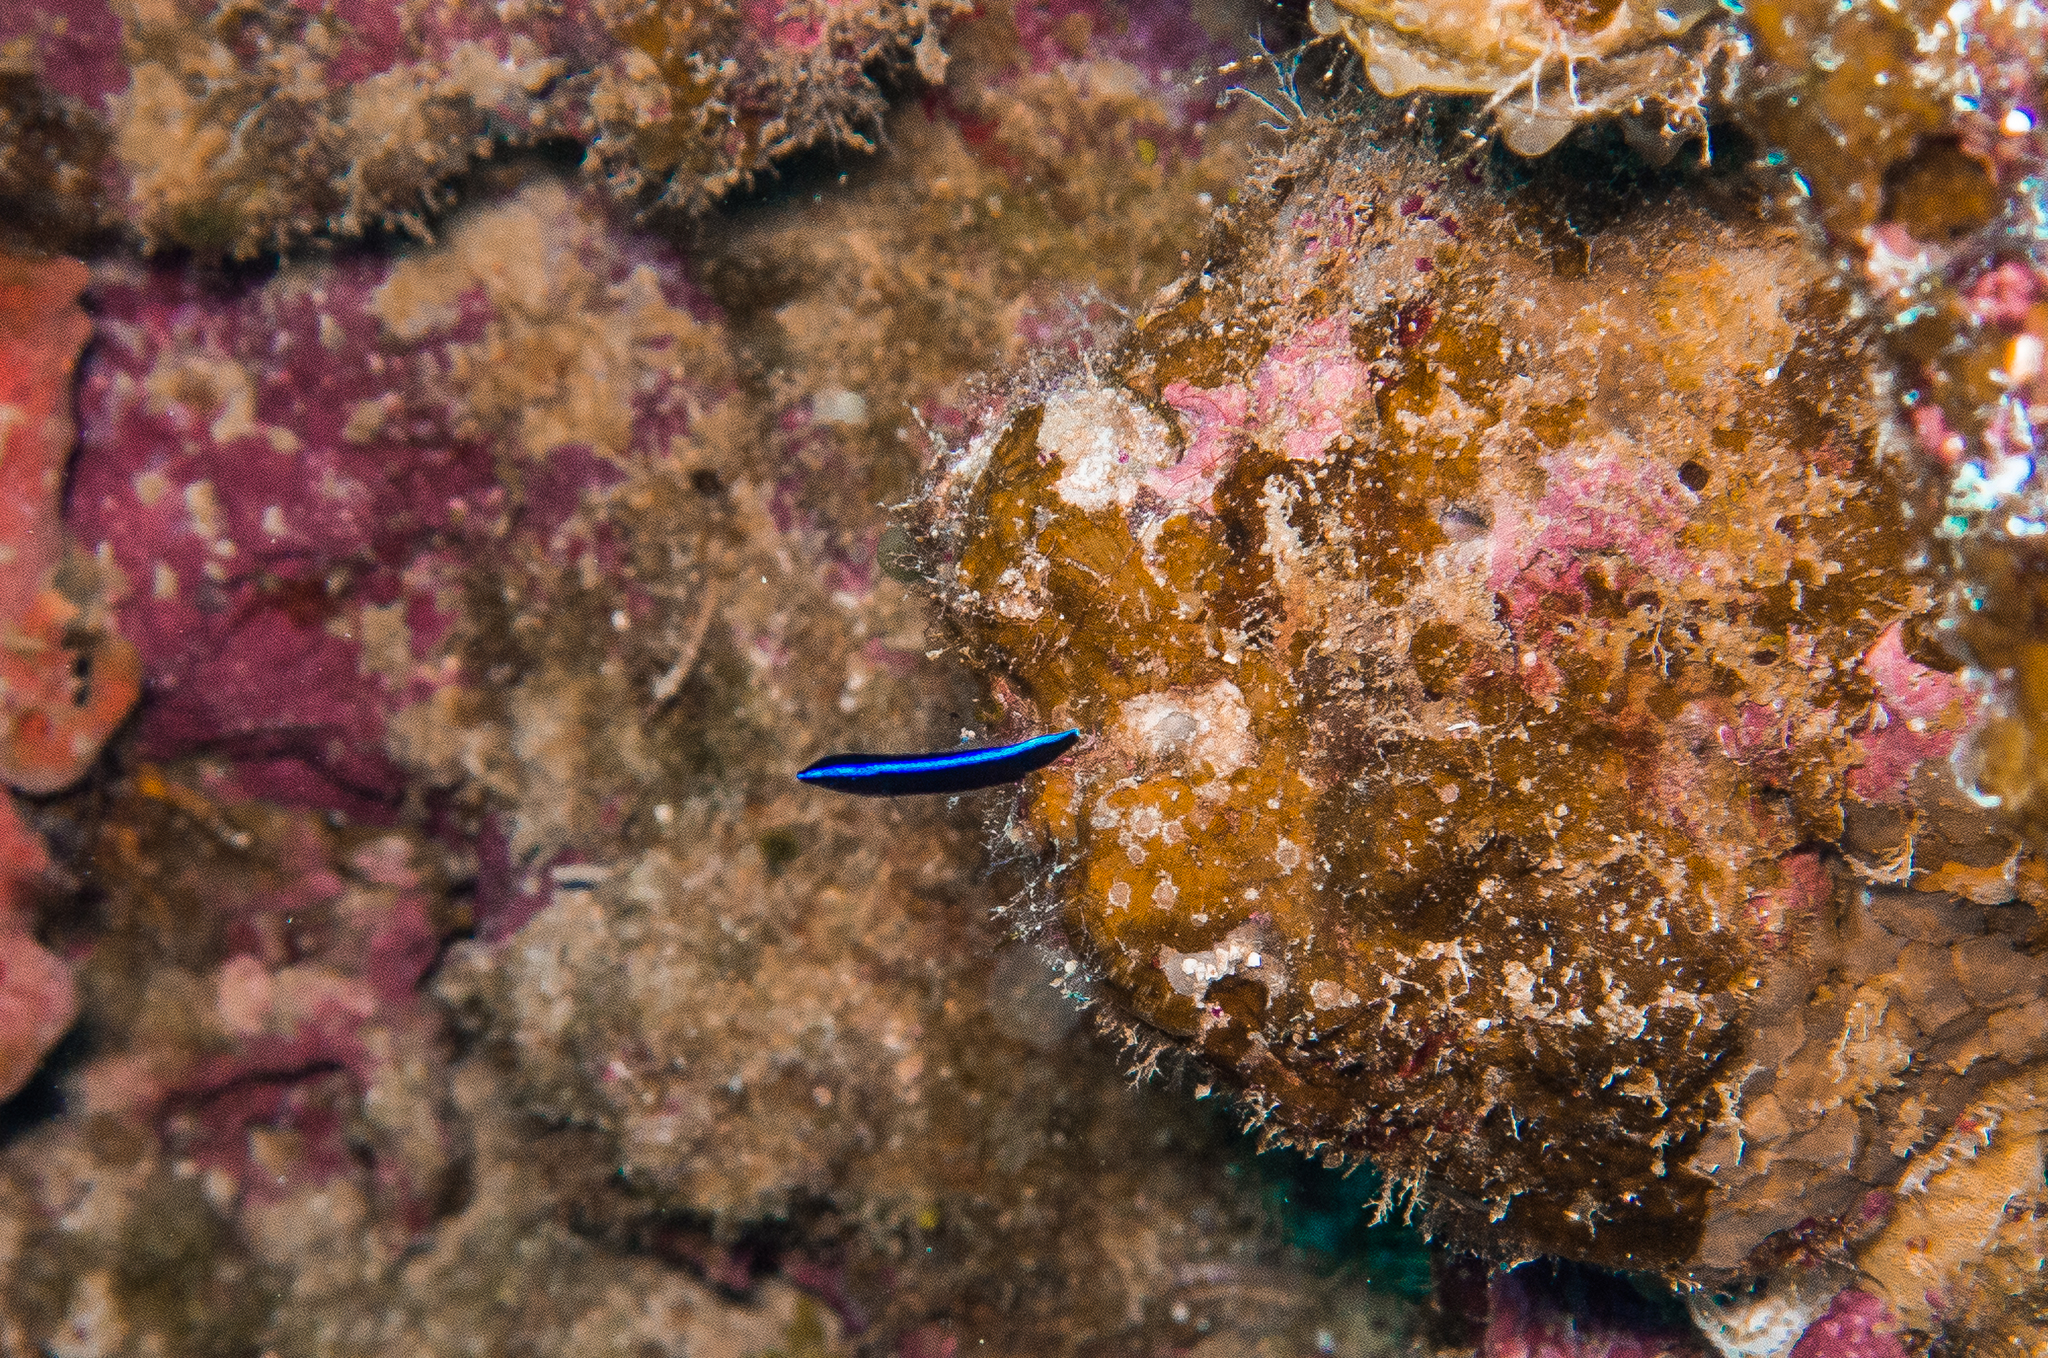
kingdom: Animalia
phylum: Chordata
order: Perciformes
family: Labridae
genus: Labroides
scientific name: Labroides dimidiatus
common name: Blue diesel wrasse
